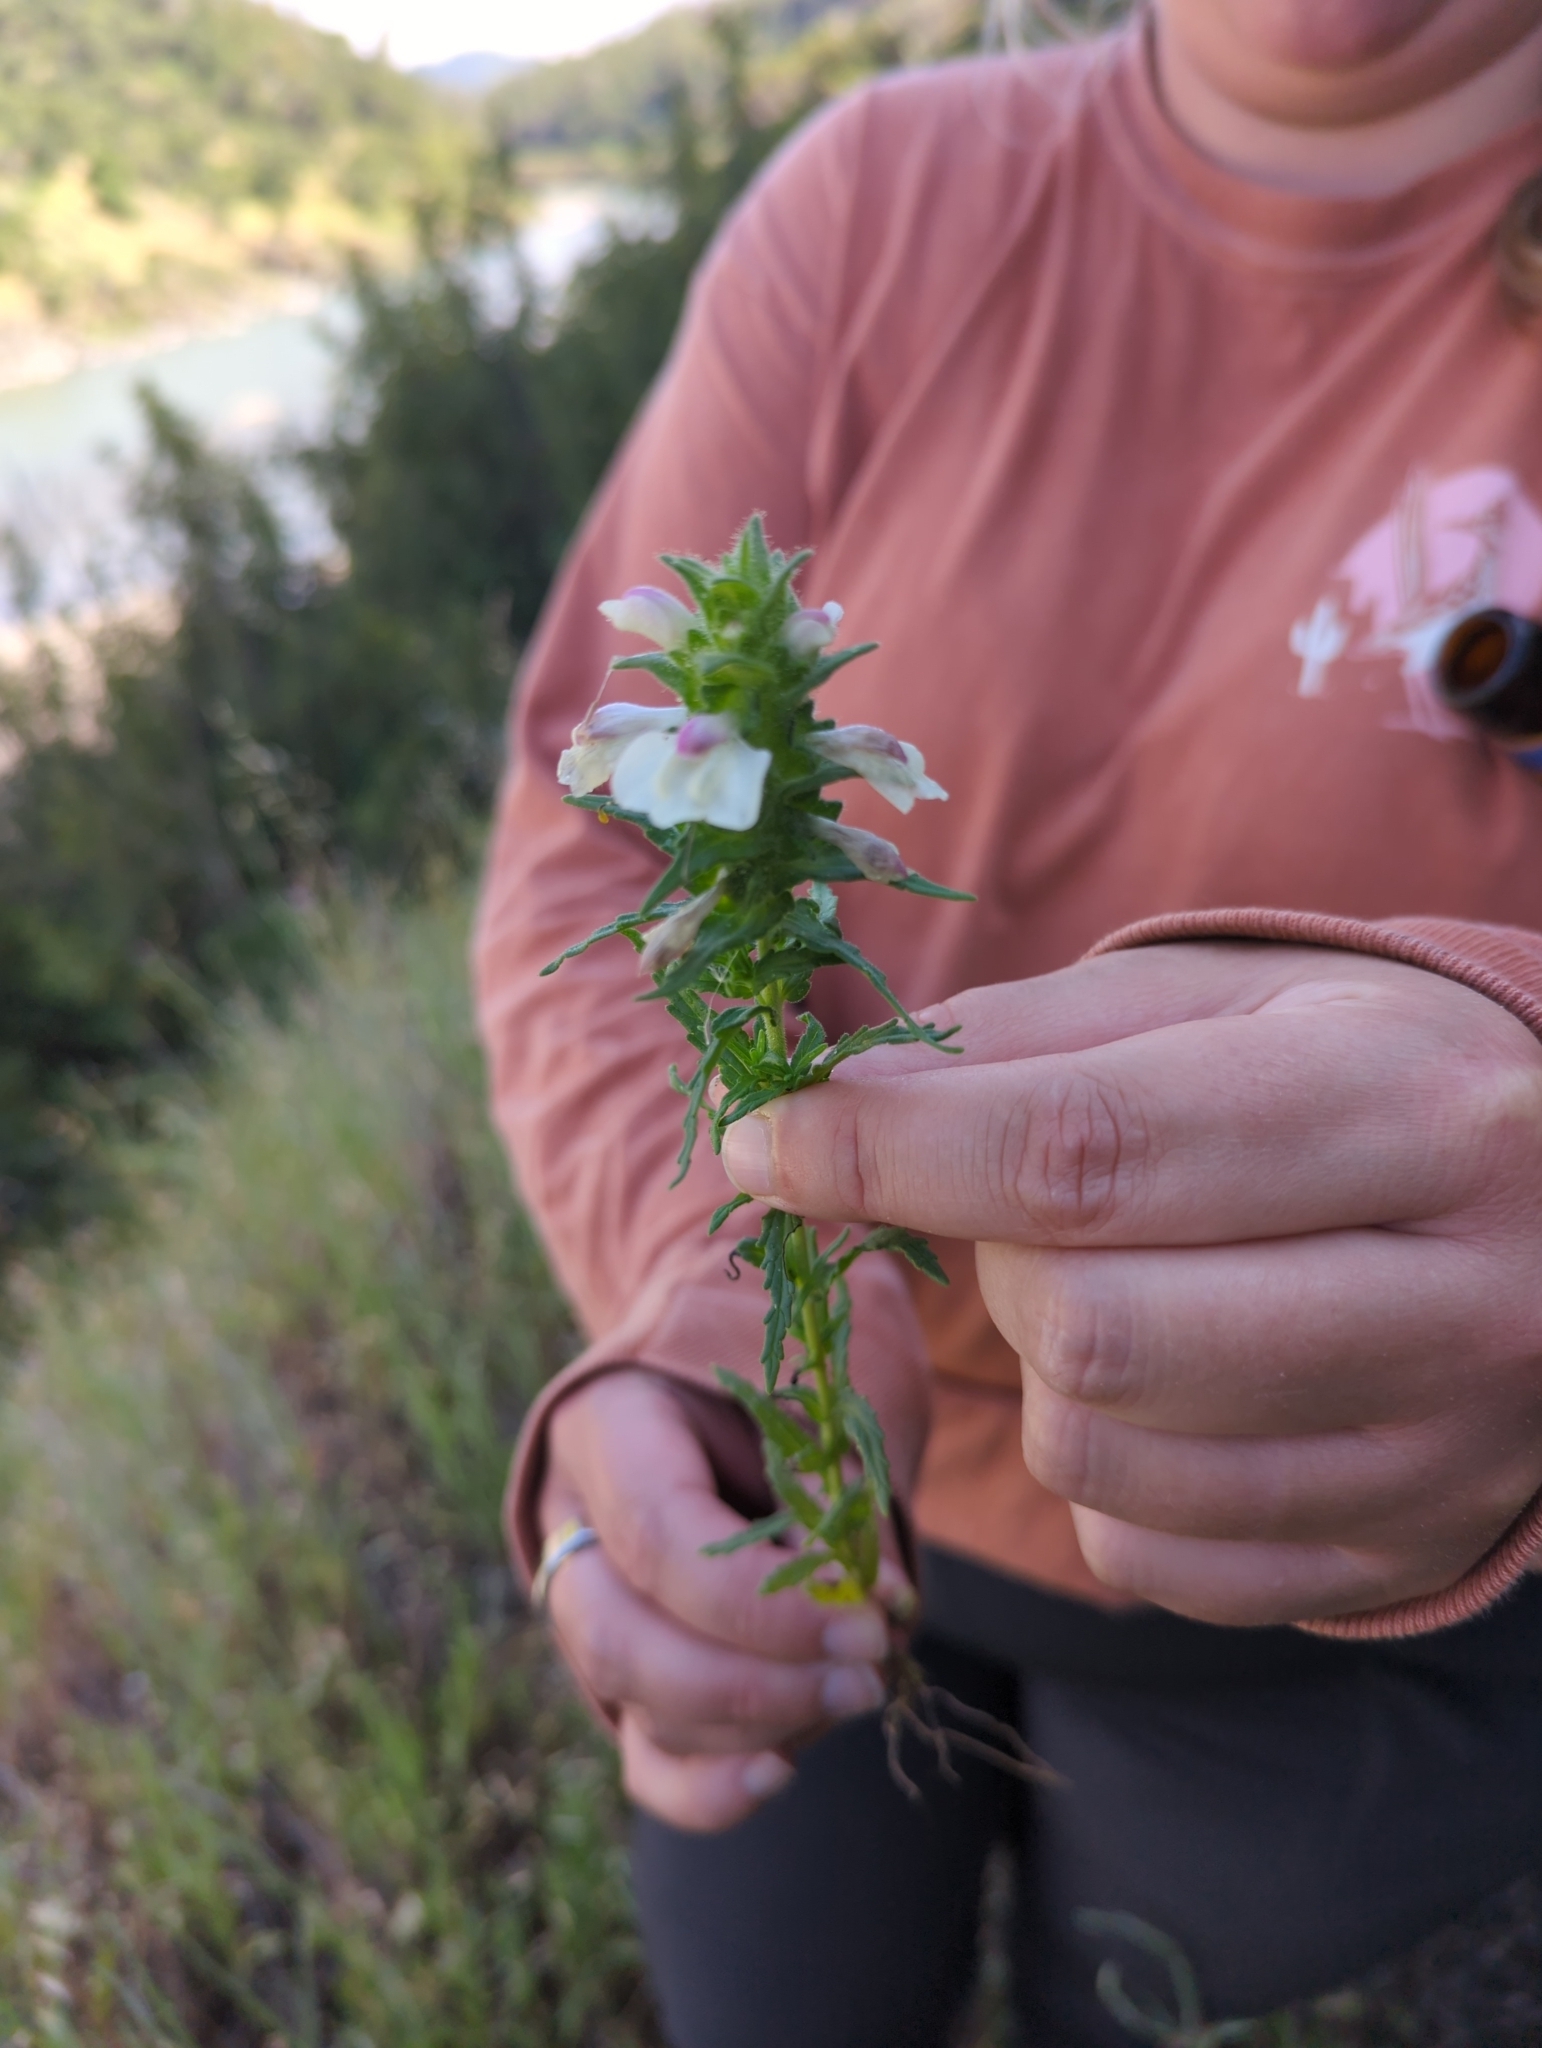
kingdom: Plantae
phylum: Tracheophyta
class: Magnoliopsida
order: Lamiales
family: Orobanchaceae
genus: Bellardia
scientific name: Bellardia trixago
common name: Mediterranean lineseed
